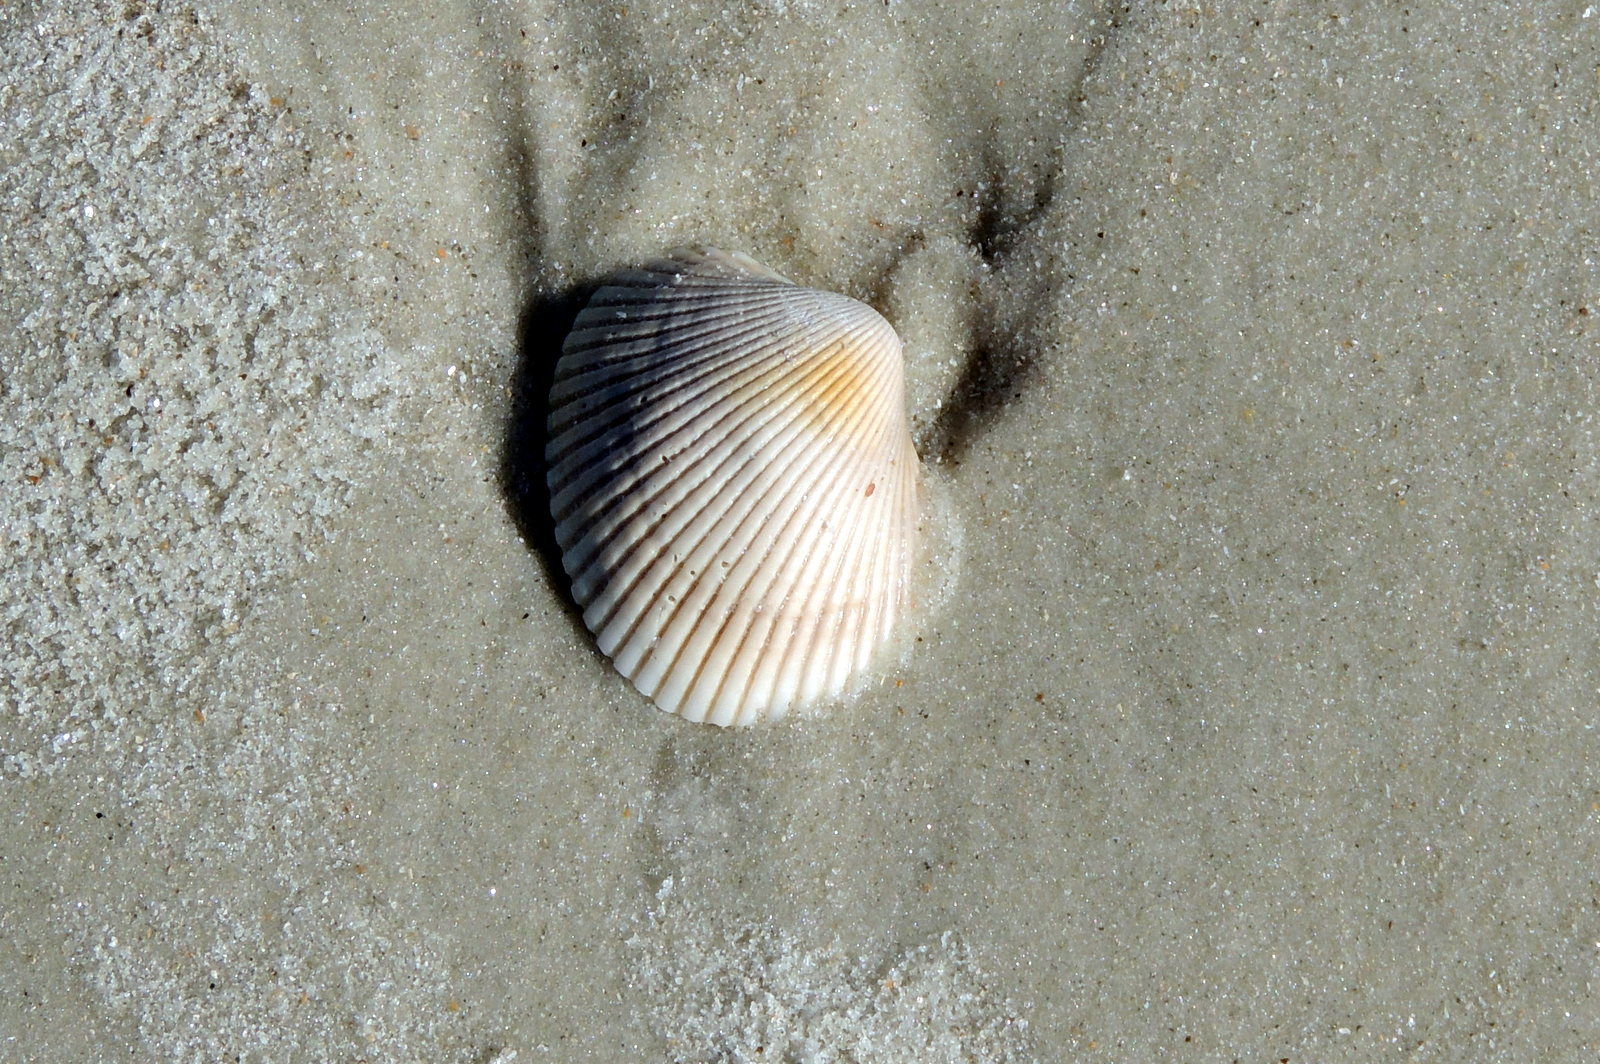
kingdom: Animalia
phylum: Mollusca
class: Bivalvia
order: Arcida
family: Arcidae
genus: Lunarca
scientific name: Lunarca ovalis
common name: Blood ark
